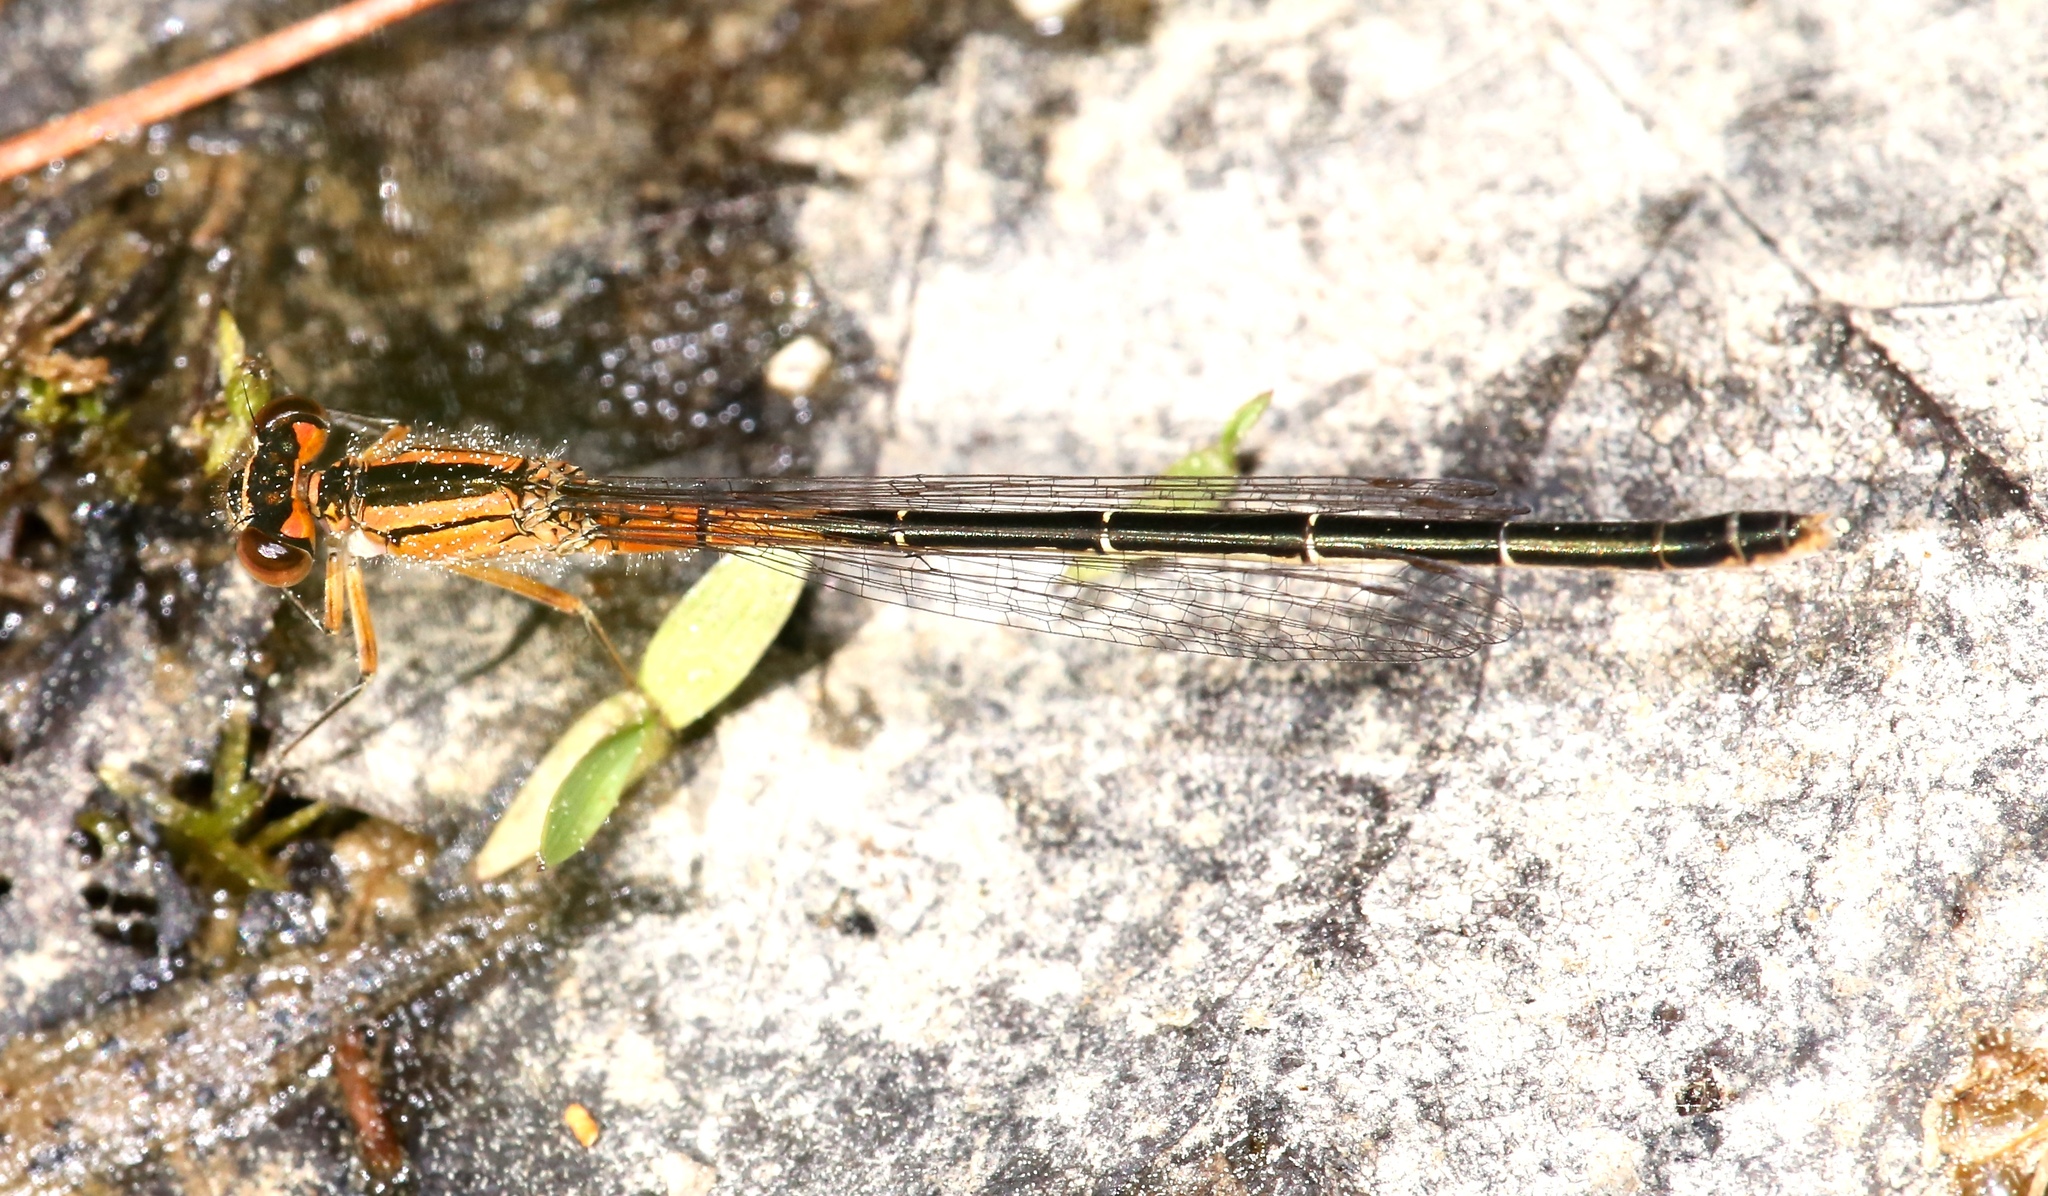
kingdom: Animalia
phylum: Arthropoda
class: Insecta
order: Odonata
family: Coenagrionidae
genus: Ischnura
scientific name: Ischnura verticalis
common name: Eastern forktail
